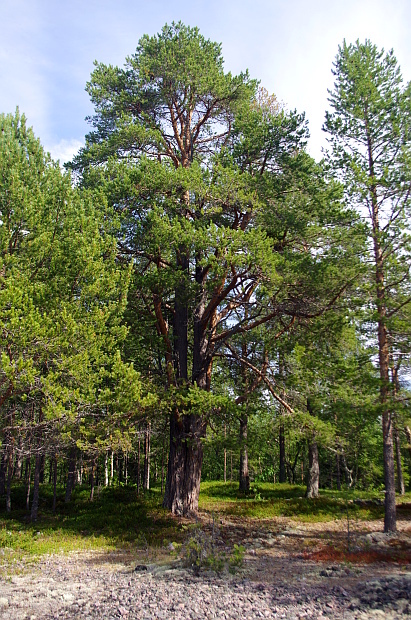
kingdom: Plantae
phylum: Tracheophyta
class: Pinopsida
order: Pinales
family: Pinaceae
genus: Pinus
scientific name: Pinus sylvestris
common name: Scots pine
